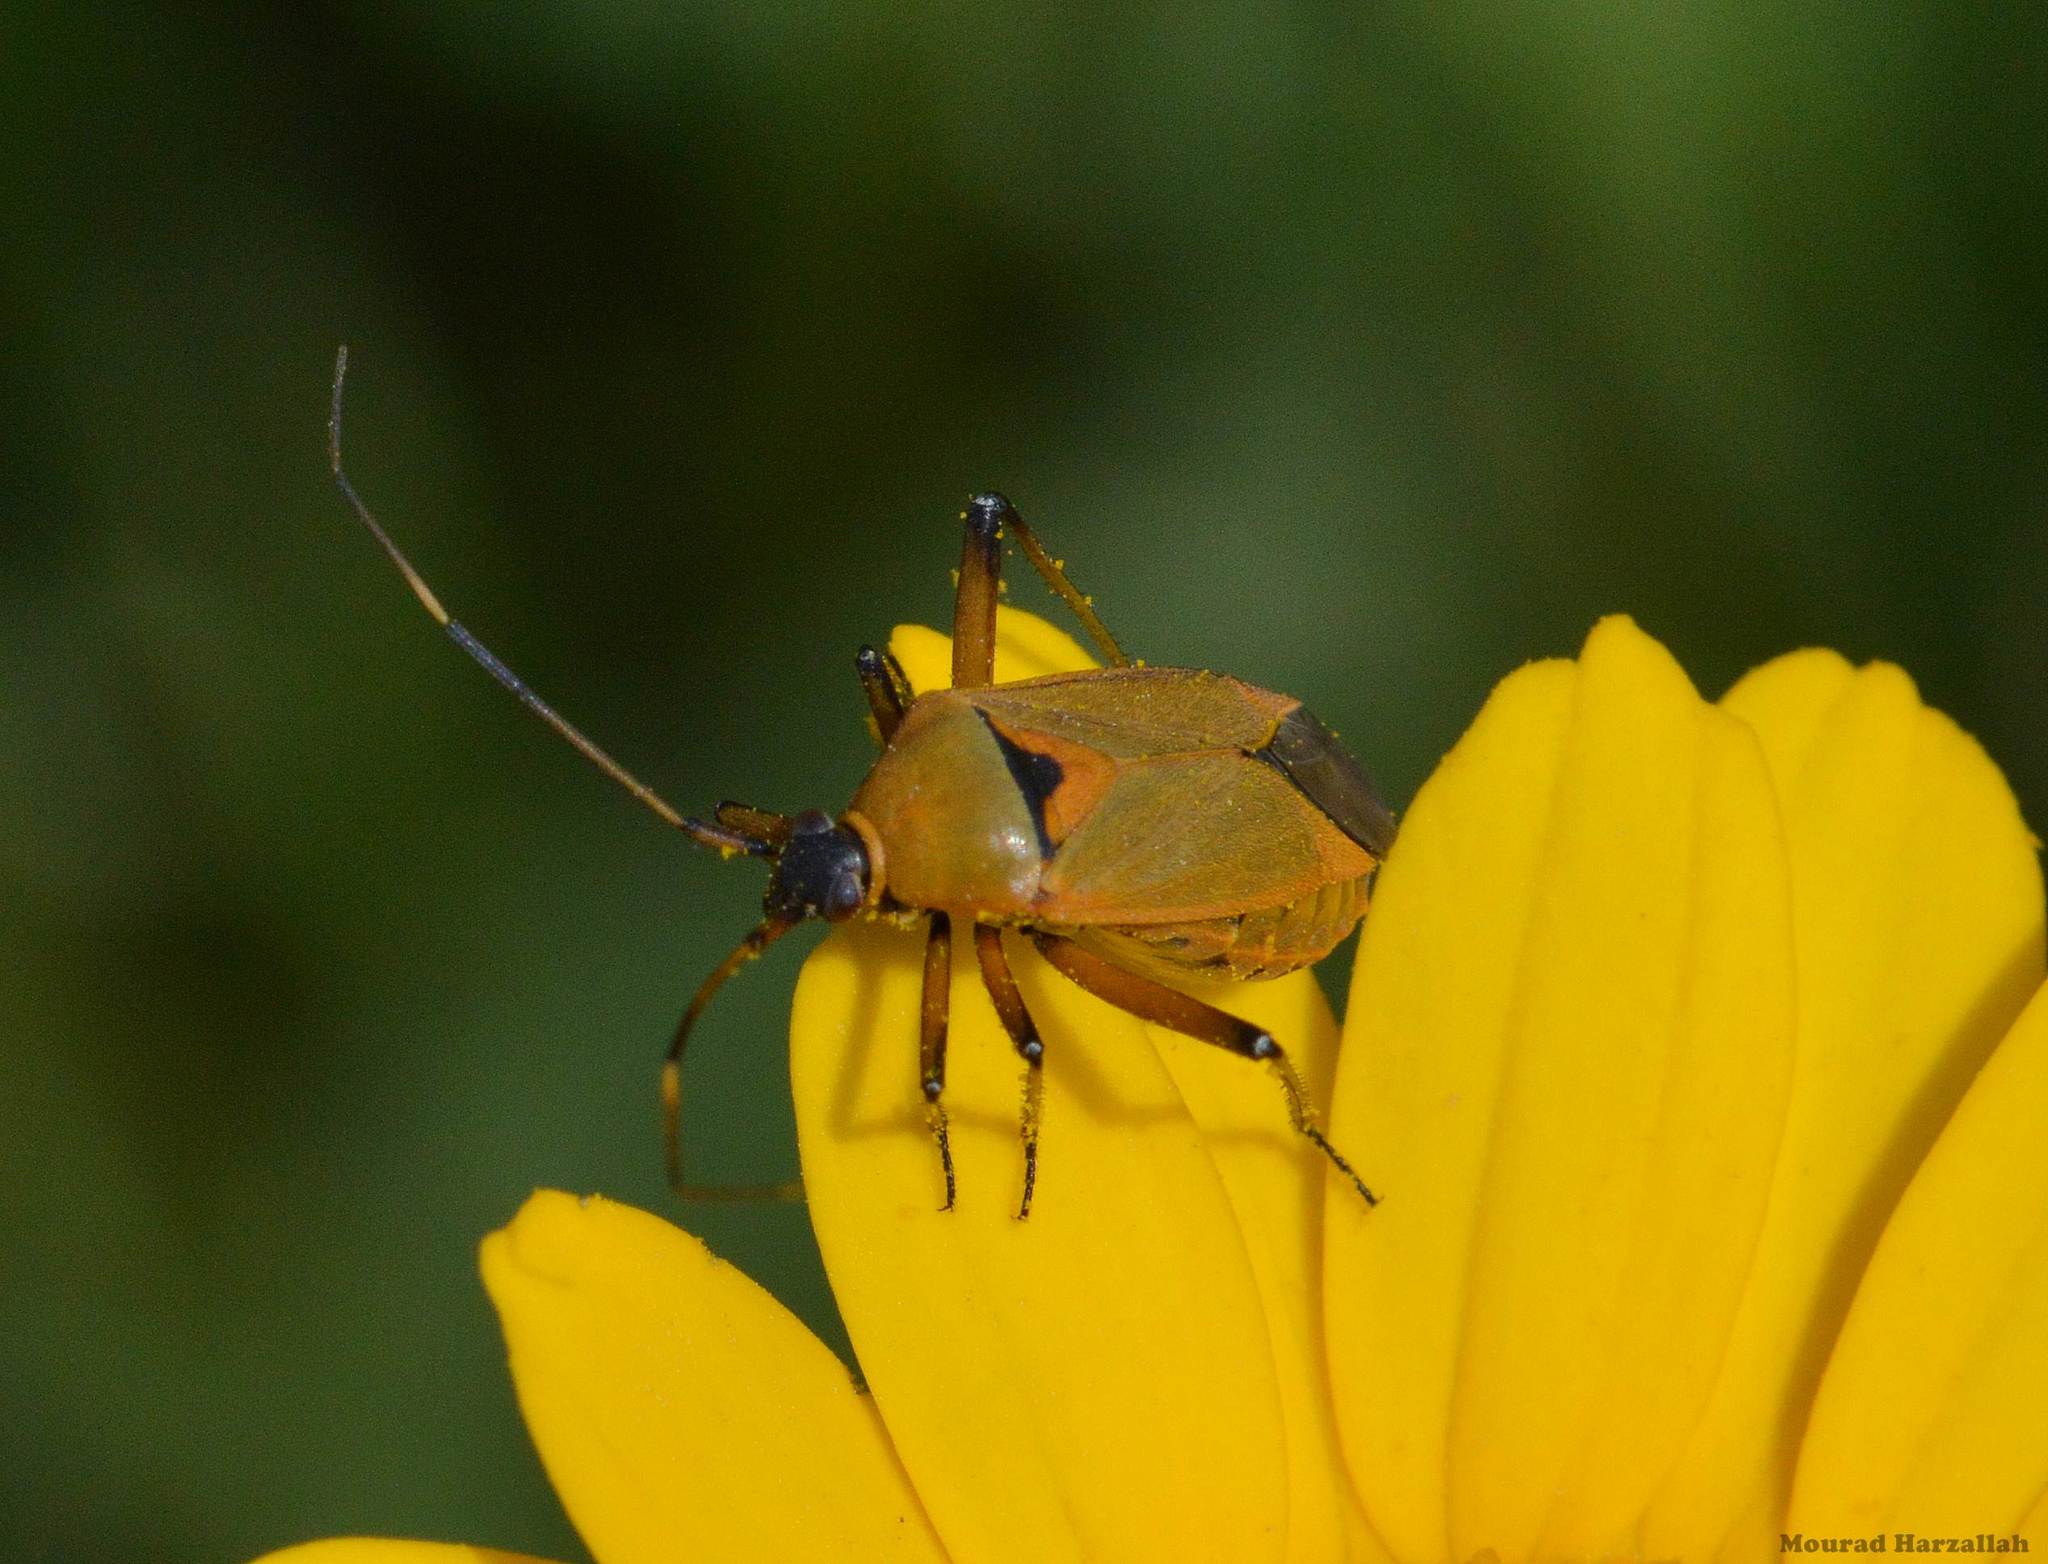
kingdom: Animalia
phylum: Arthropoda
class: Insecta
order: Hemiptera
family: Miridae
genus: Calocoris
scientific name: Calocoris nemoralis
